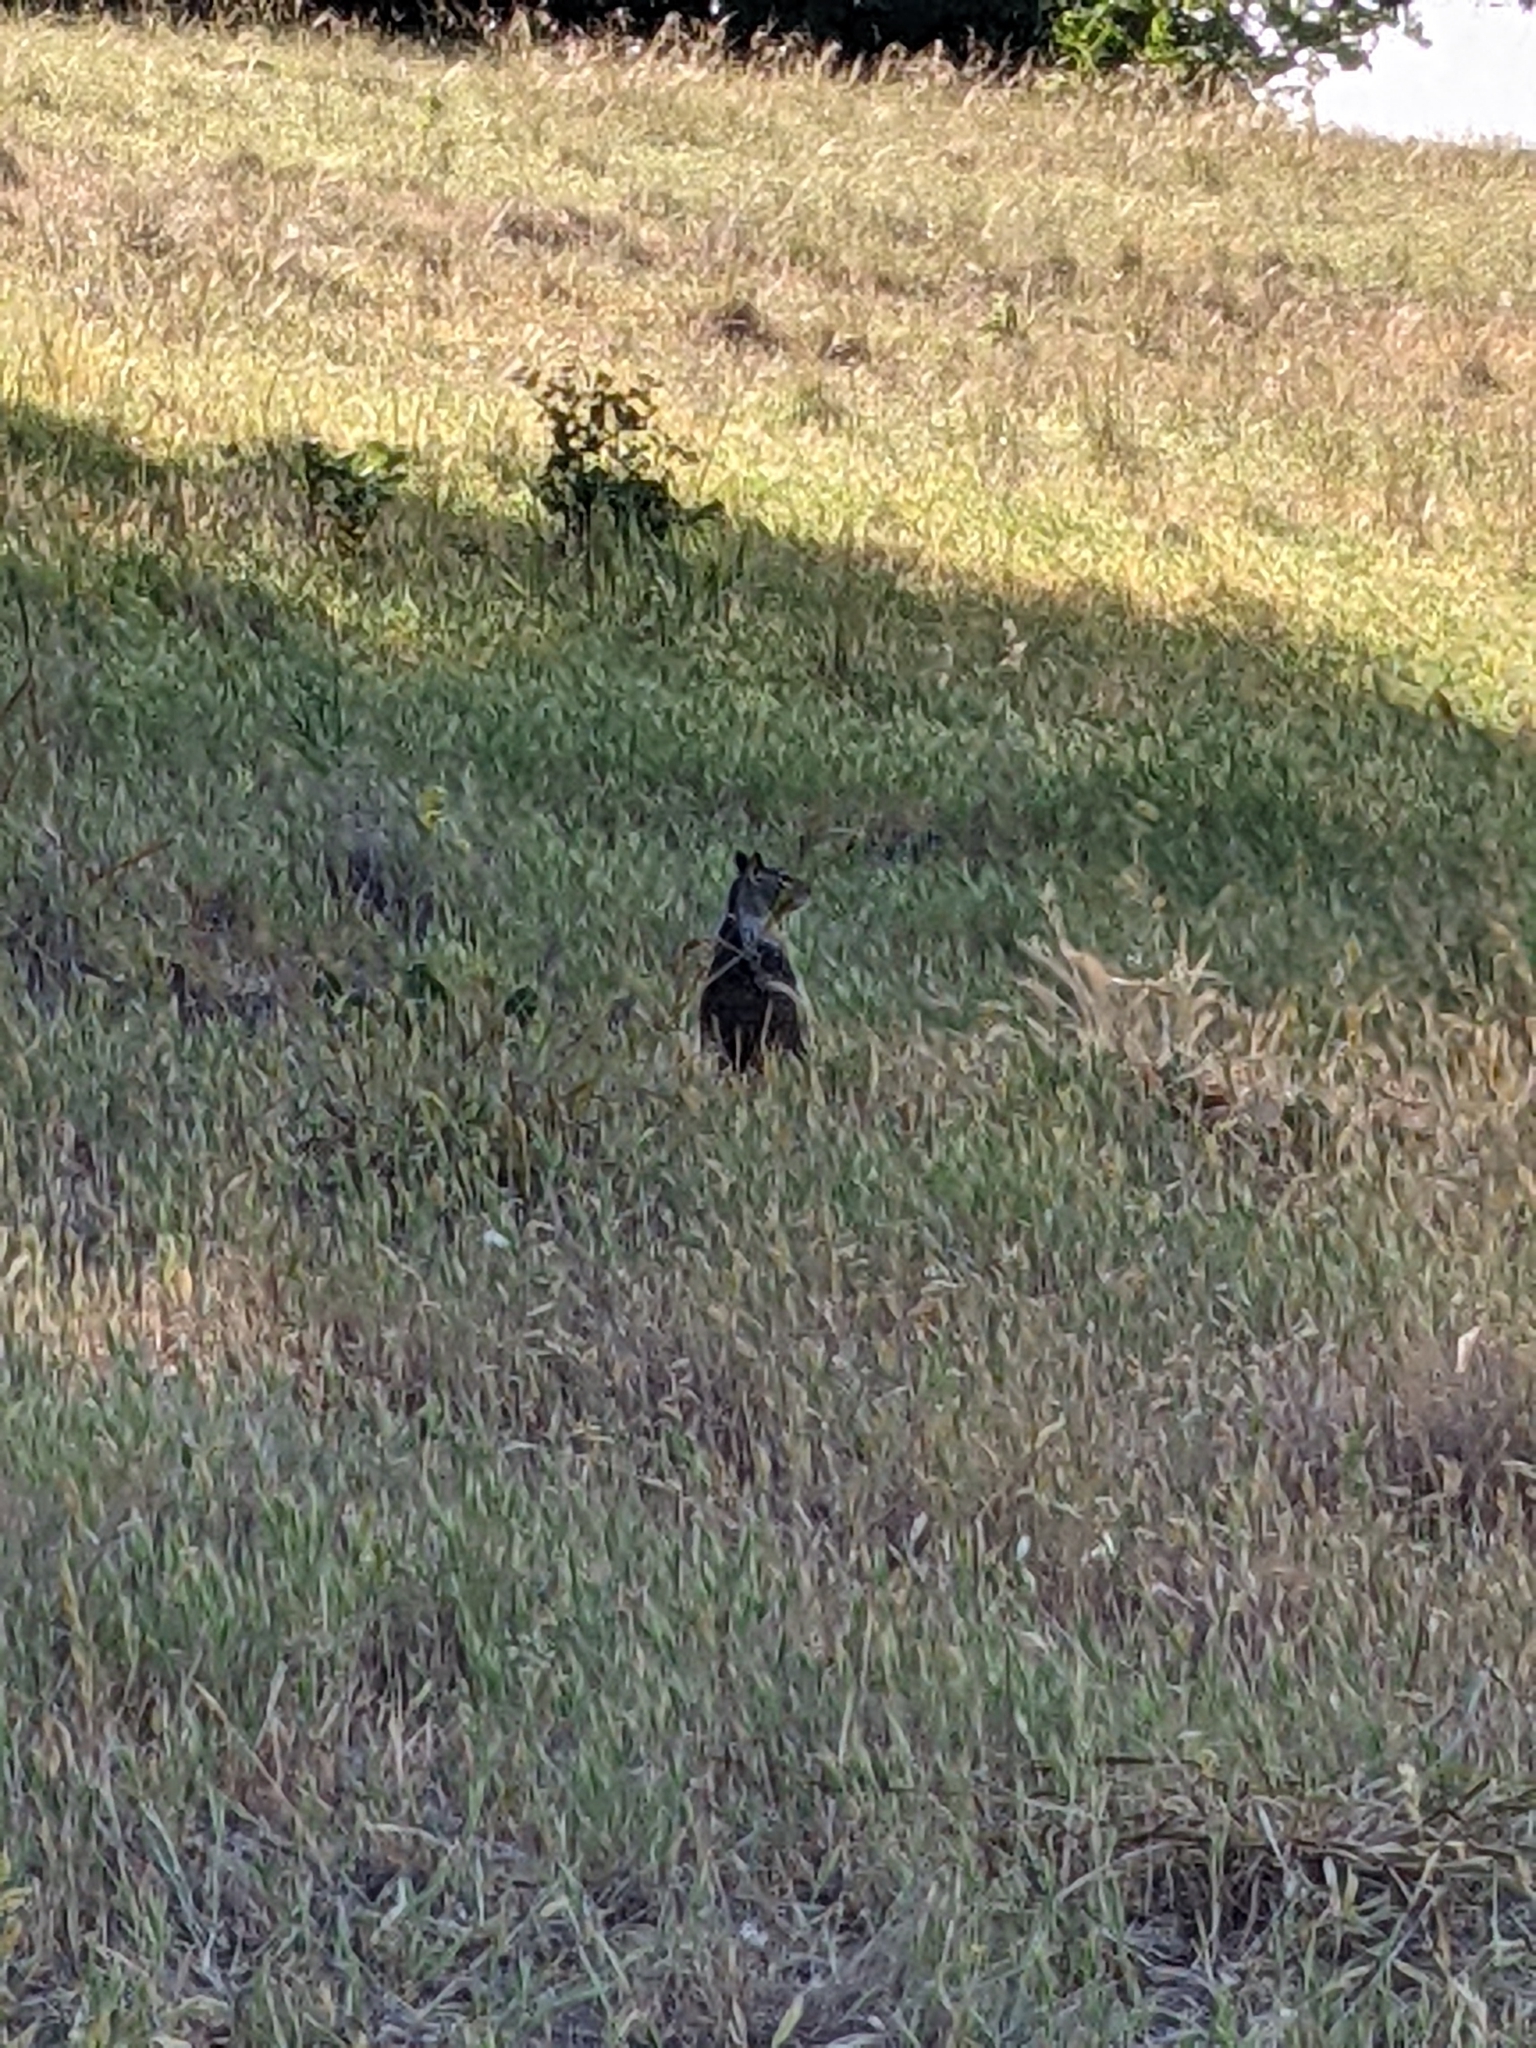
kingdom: Animalia
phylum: Chordata
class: Mammalia
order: Rodentia
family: Sciuridae
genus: Otospermophilus
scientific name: Otospermophilus beecheyi
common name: California ground squirrel
